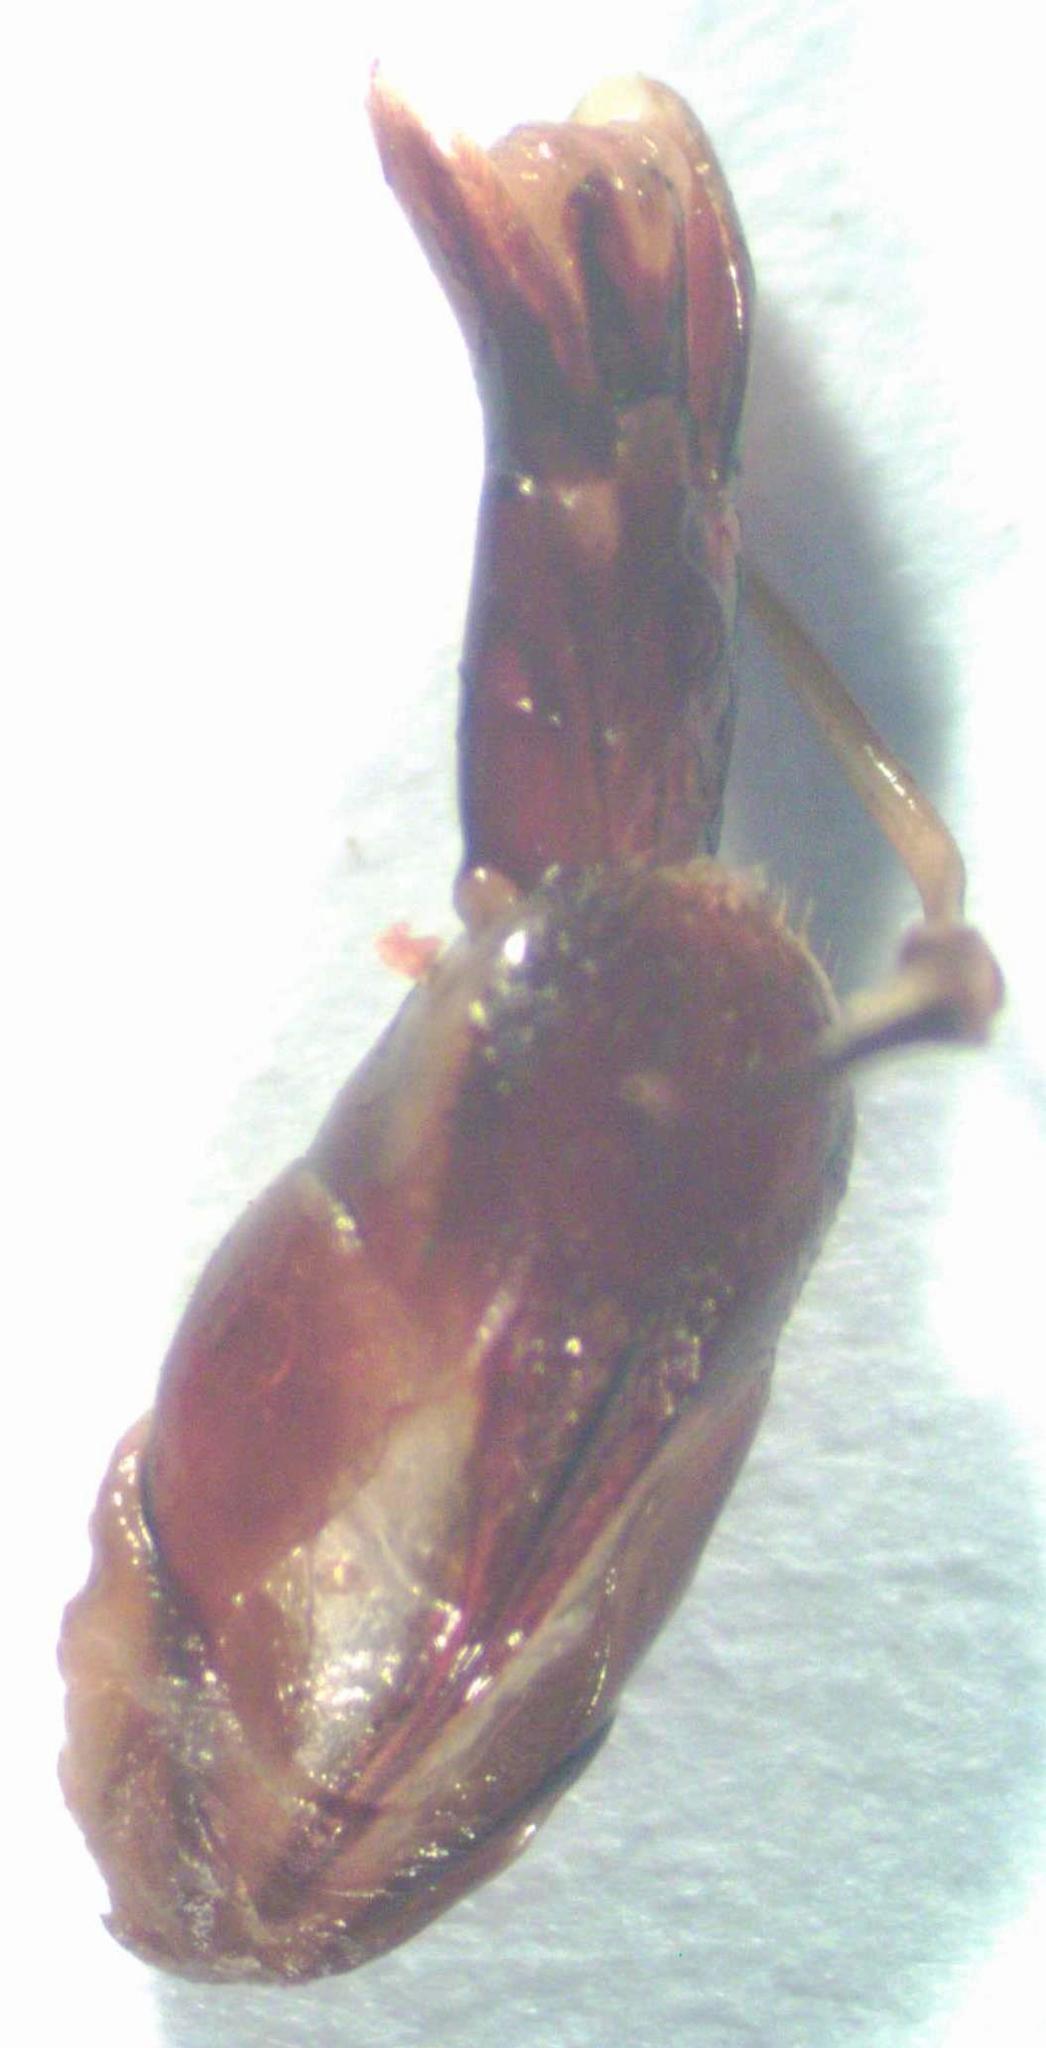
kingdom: Animalia
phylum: Arthropoda
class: Insecta
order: Coleoptera
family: Lucanidae
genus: Dorcus
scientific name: Dorcus cervulus
